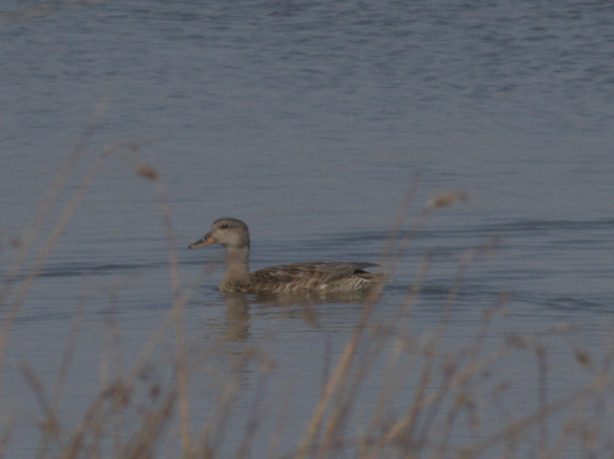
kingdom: Animalia
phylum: Chordata
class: Aves
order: Anseriformes
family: Anatidae
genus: Mareca
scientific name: Mareca strepera
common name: Gadwall
